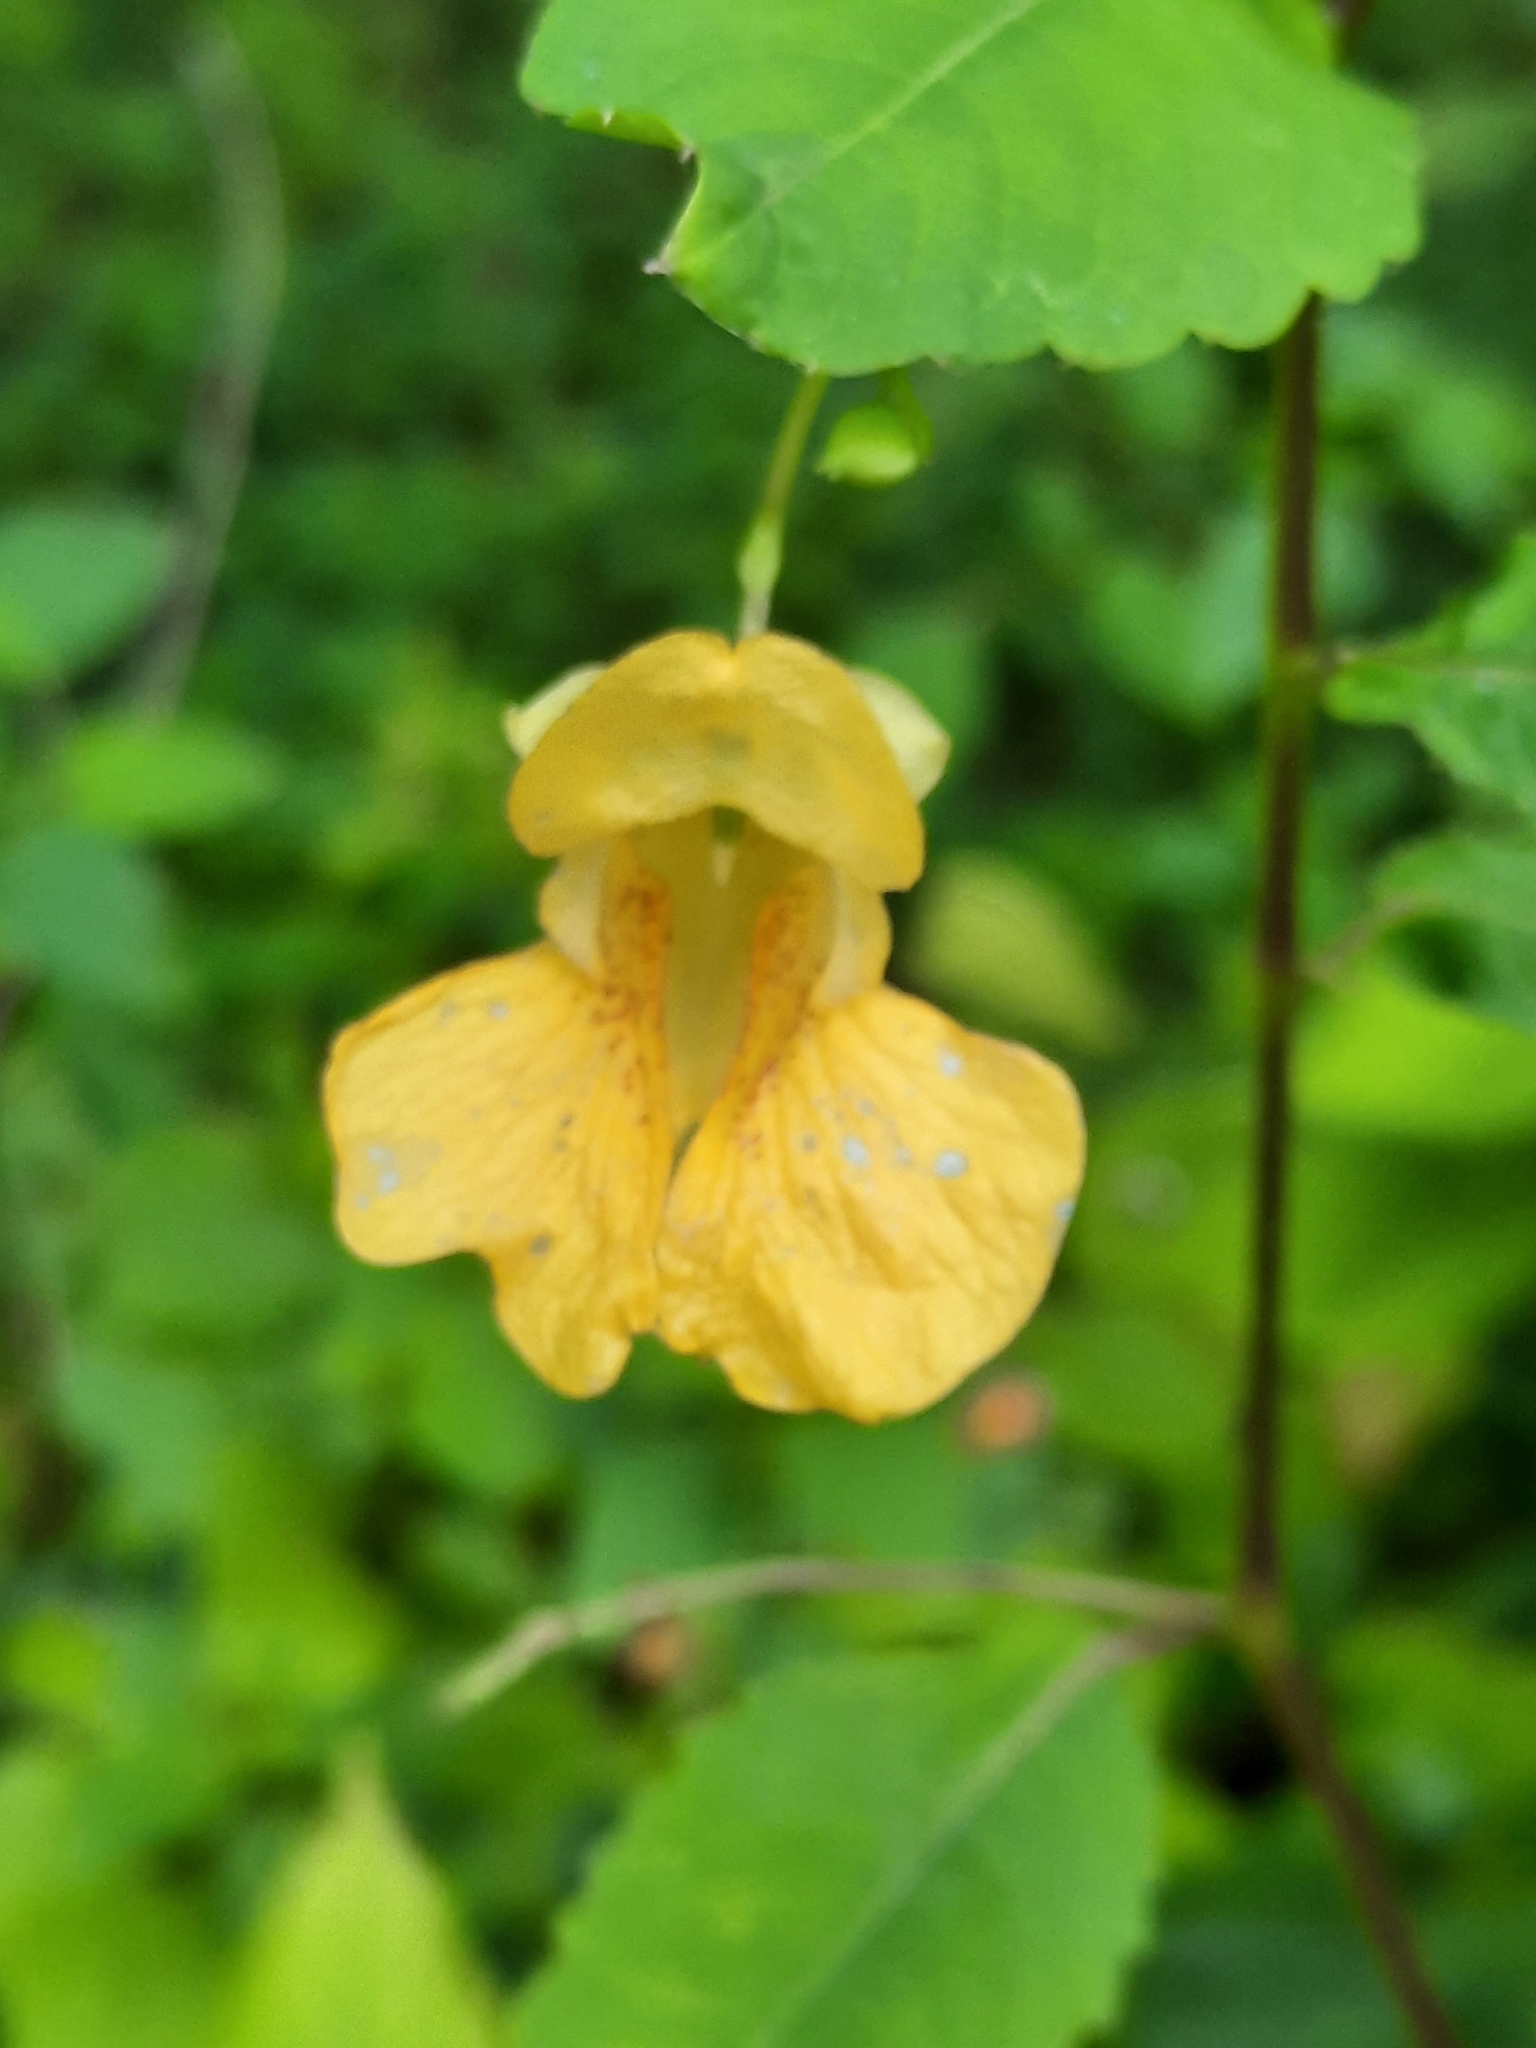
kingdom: Plantae
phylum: Tracheophyta
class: Magnoliopsida
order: Ericales
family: Balsaminaceae
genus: Impatiens
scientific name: Impatiens pallida
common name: Pale snapweed
